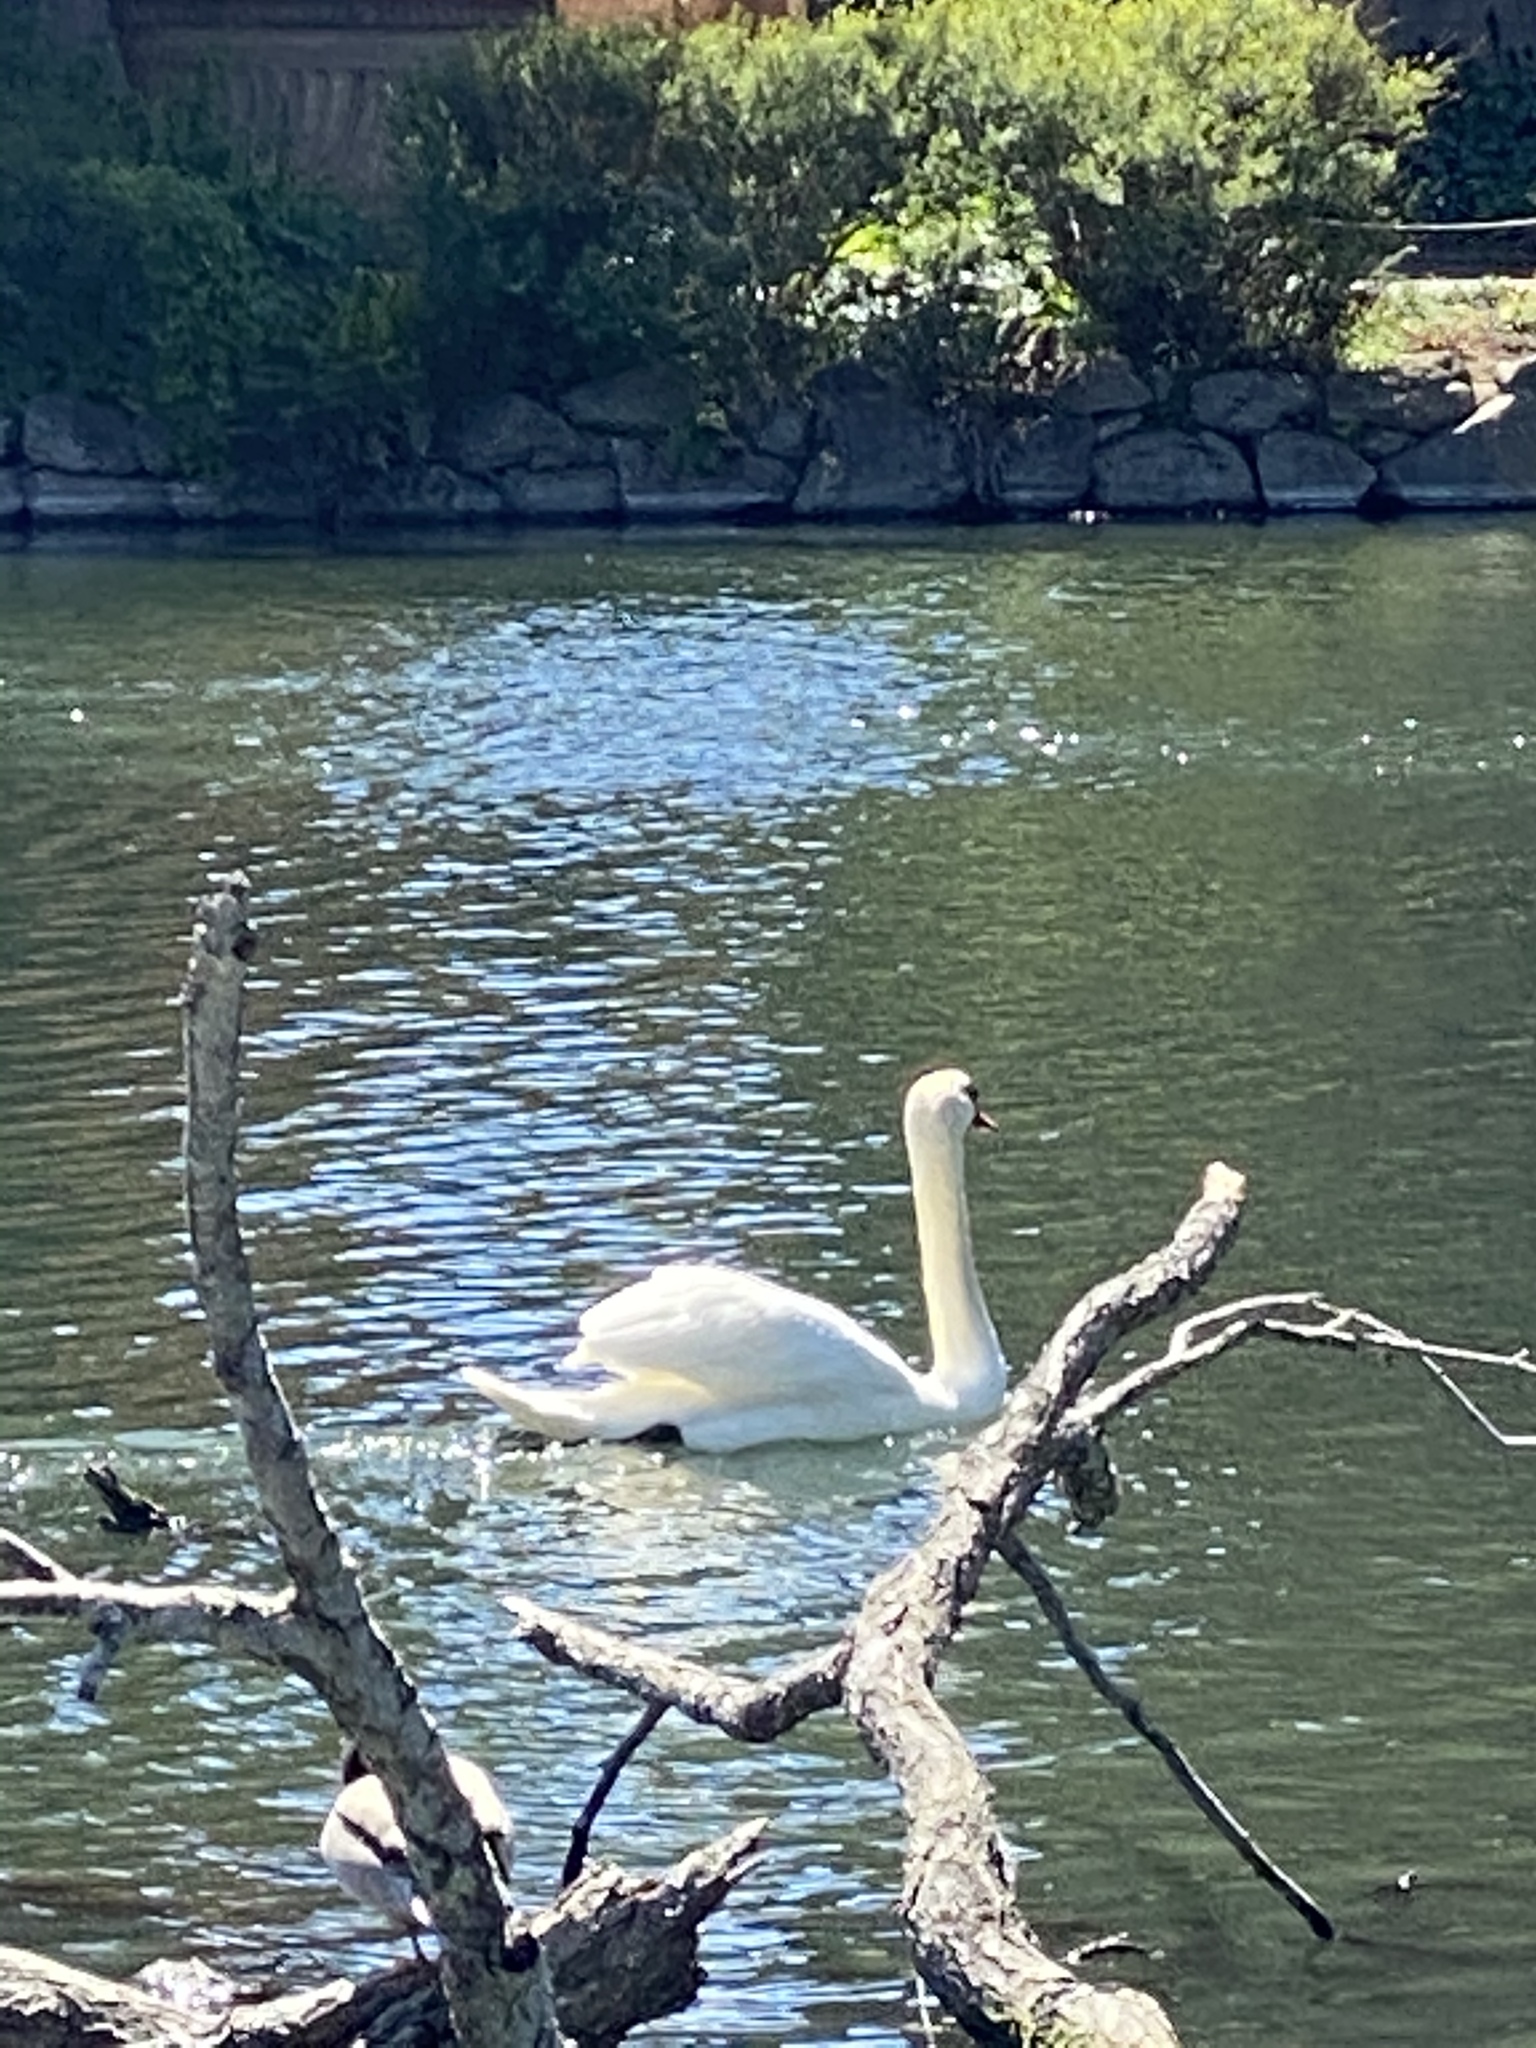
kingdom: Animalia
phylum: Chordata
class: Aves
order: Anseriformes
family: Anatidae
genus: Cygnus
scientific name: Cygnus olor
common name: Mute swan
